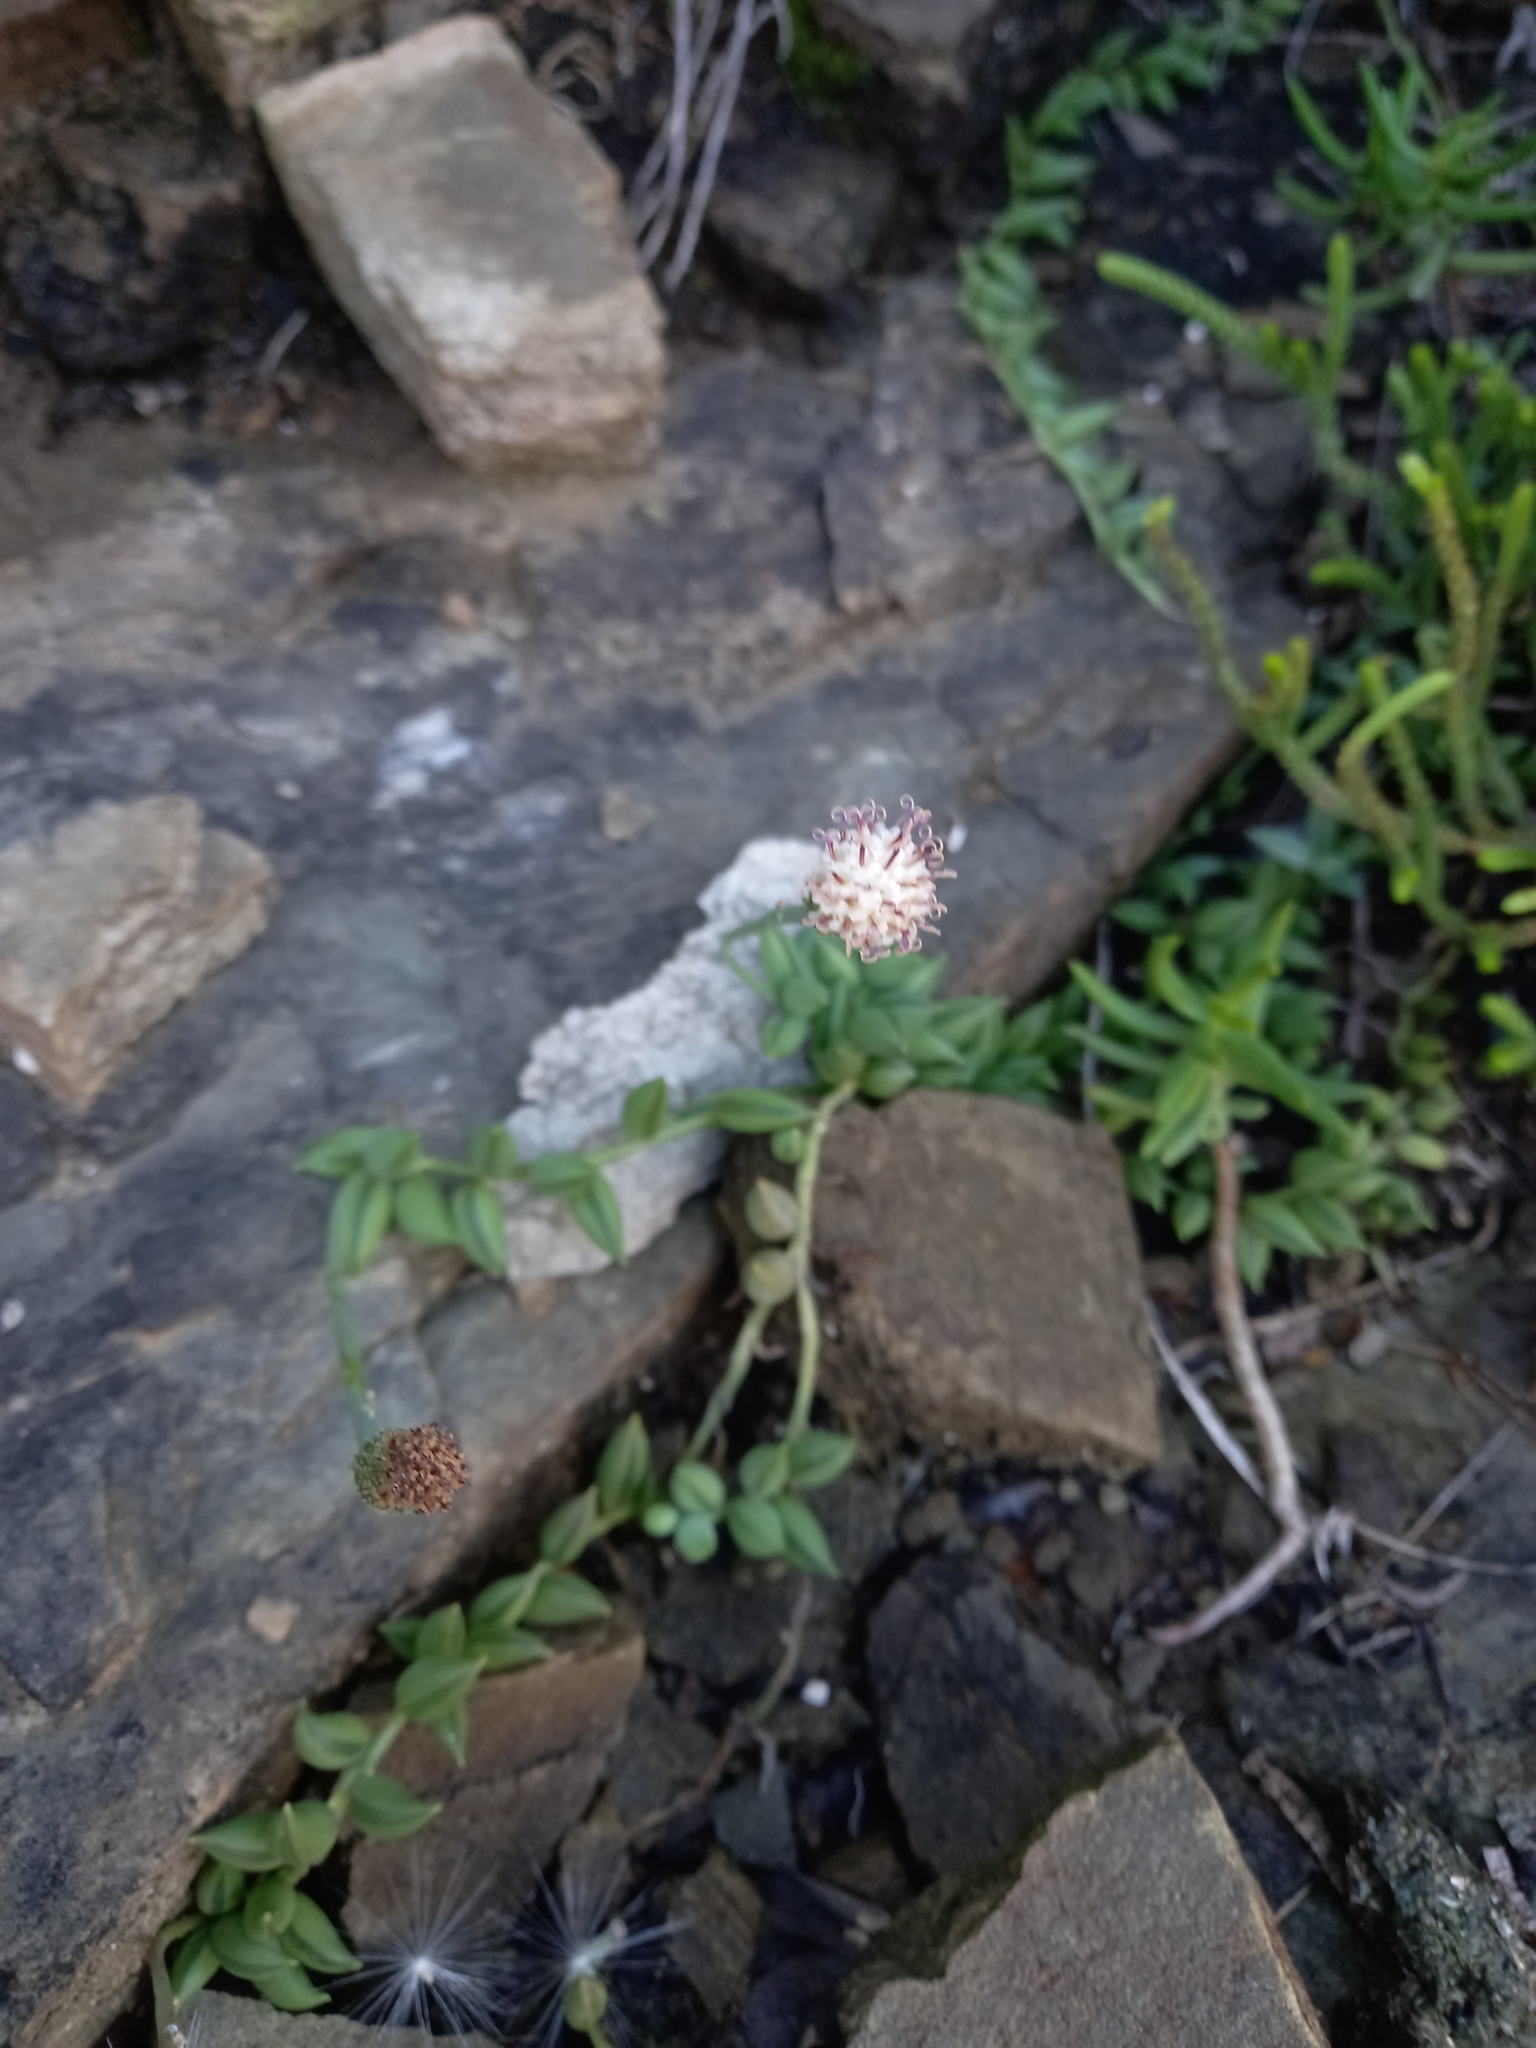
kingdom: Plantae
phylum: Tracheophyta
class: Magnoliopsida
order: Asterales
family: Asteraceae
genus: Curio
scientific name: Curio radicans
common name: Creeping-berry
